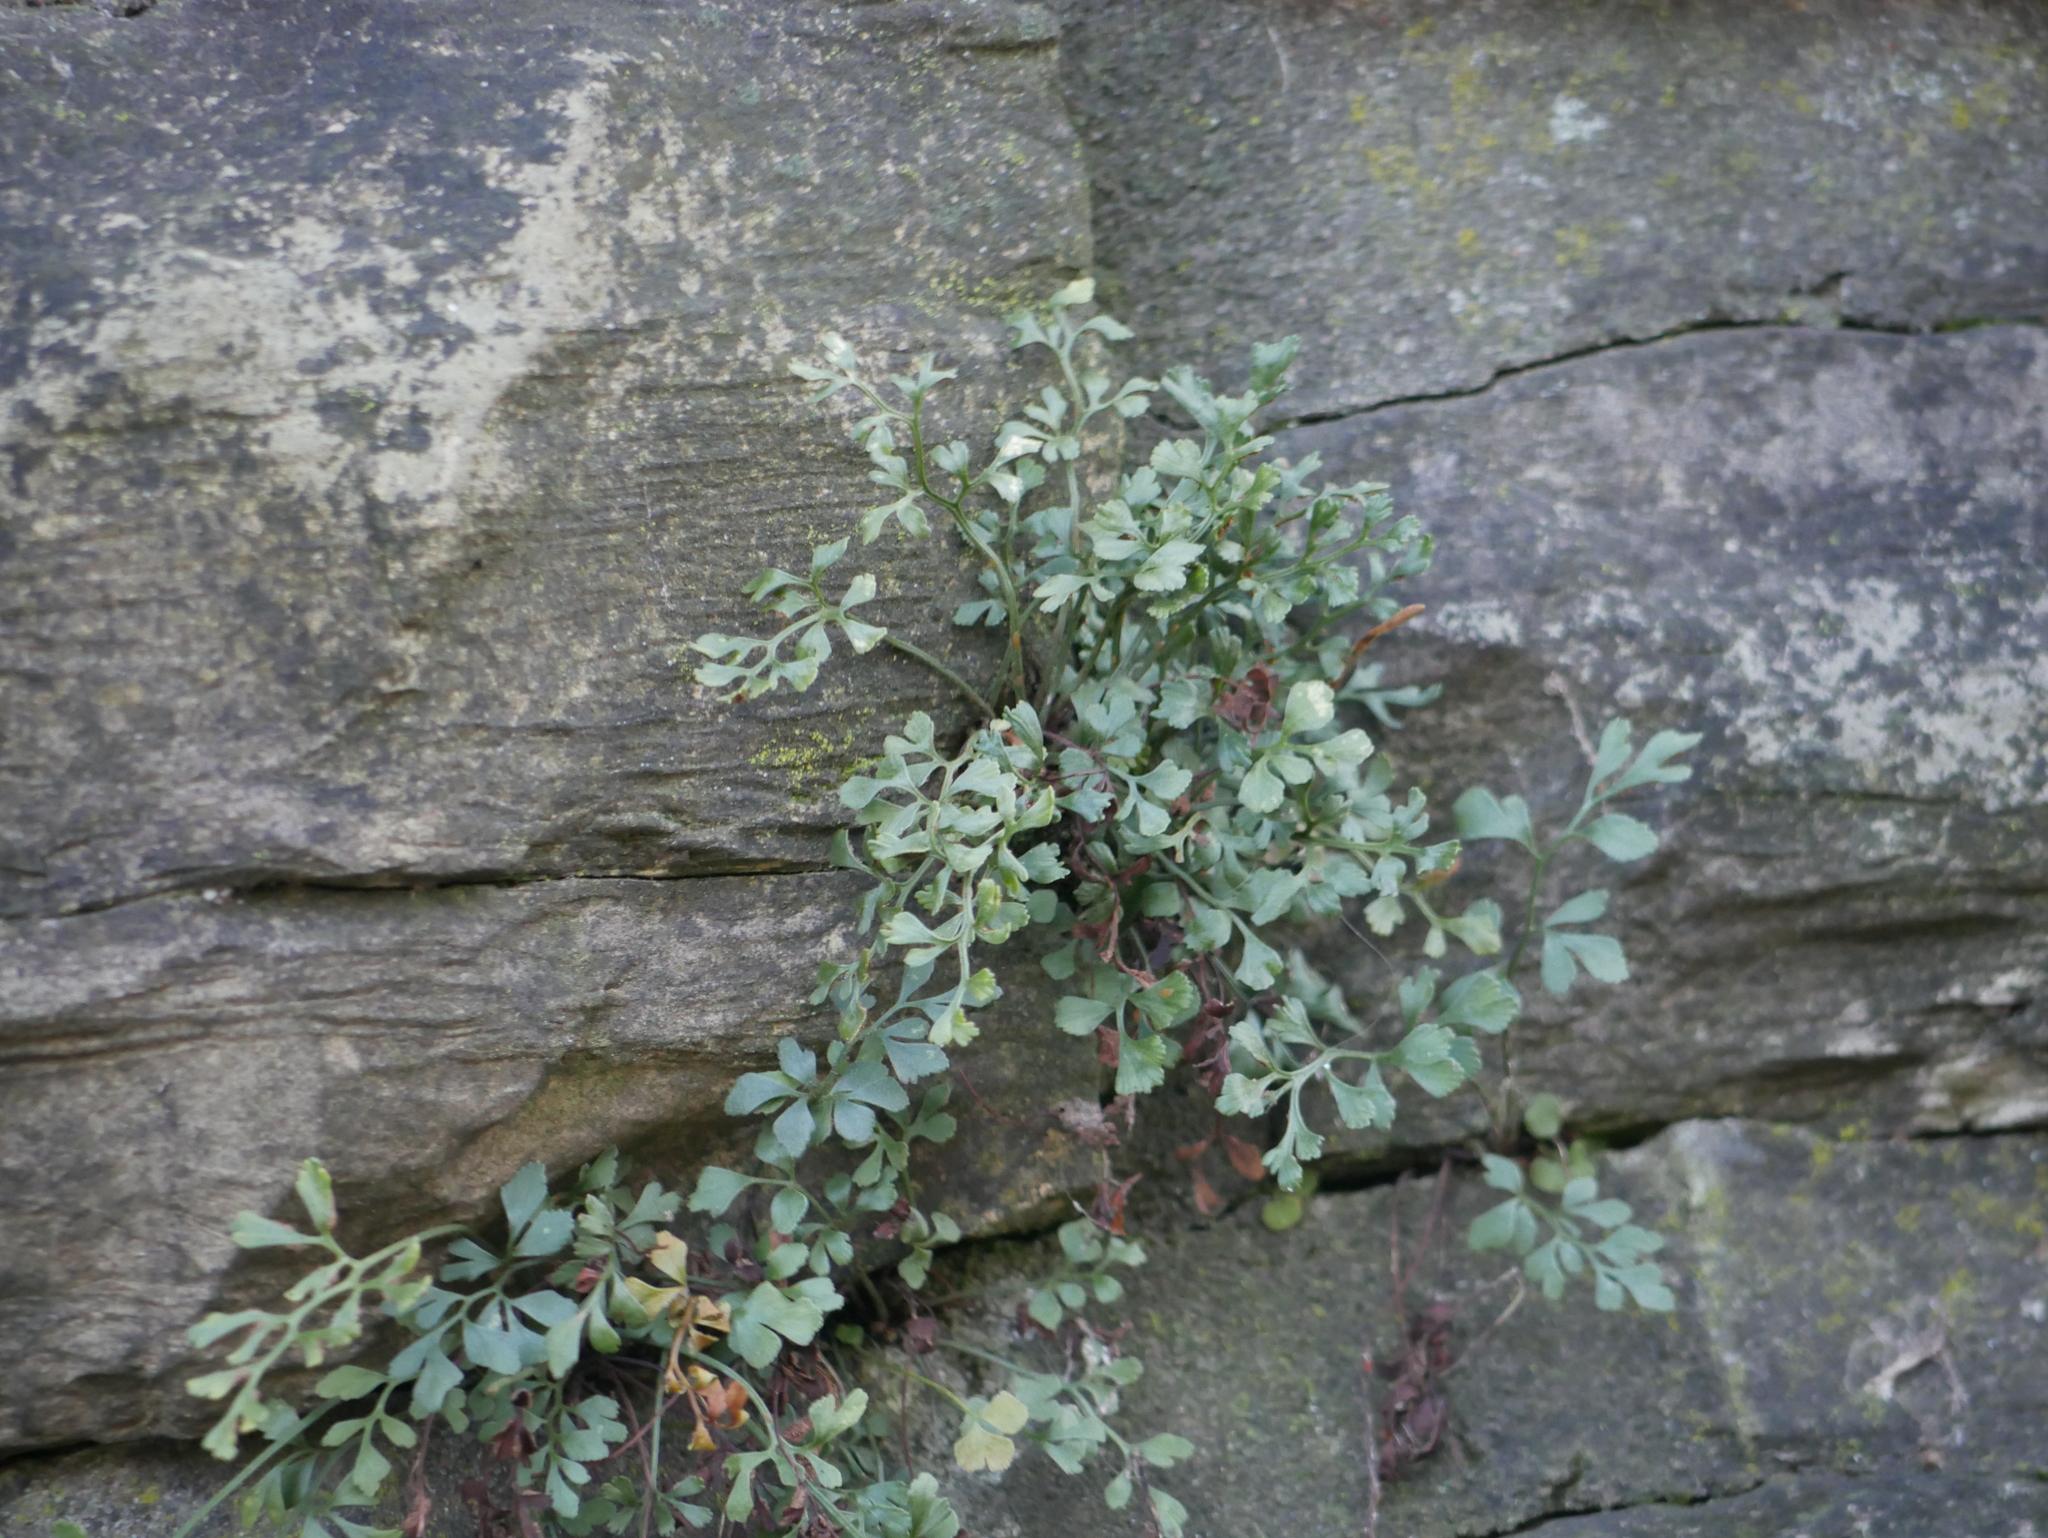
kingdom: Plantae
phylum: Tracheophyta
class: Polypodiopsida
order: Polypodiales
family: Aspleniaceae
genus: Asplenium
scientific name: Asplenium ruta-muraria
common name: Wall-rue
